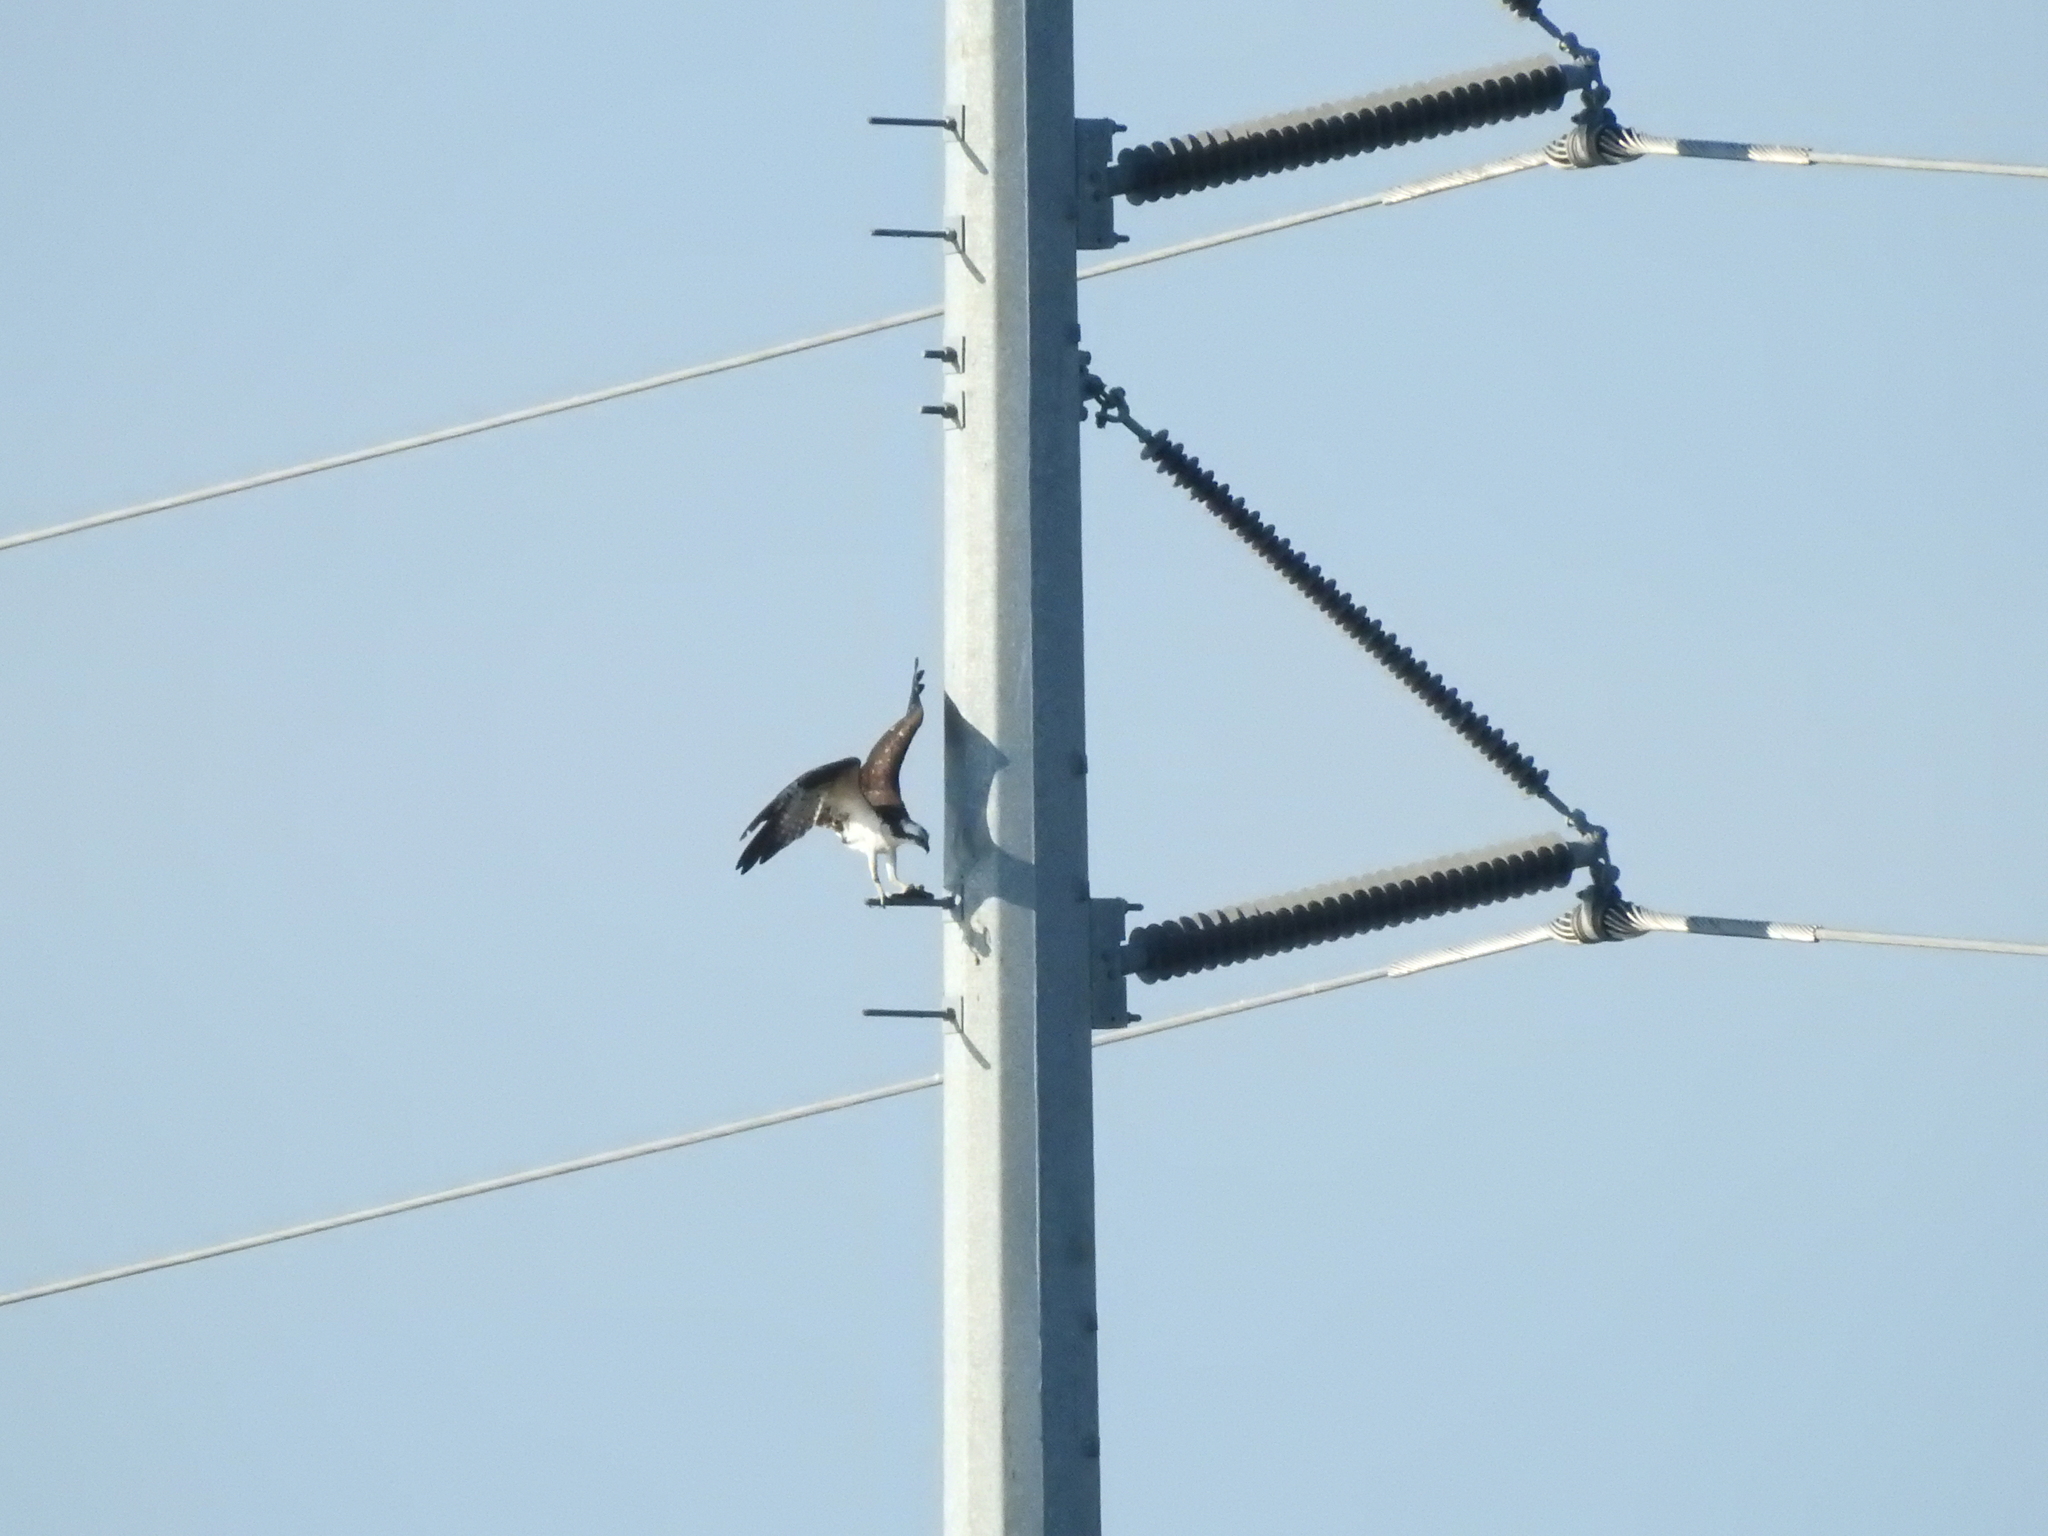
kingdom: Animalia
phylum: Chordata
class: Aves
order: Accipitriformes
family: Pandionidae
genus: Pandion
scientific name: Pandion haliaetus
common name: Osprey
